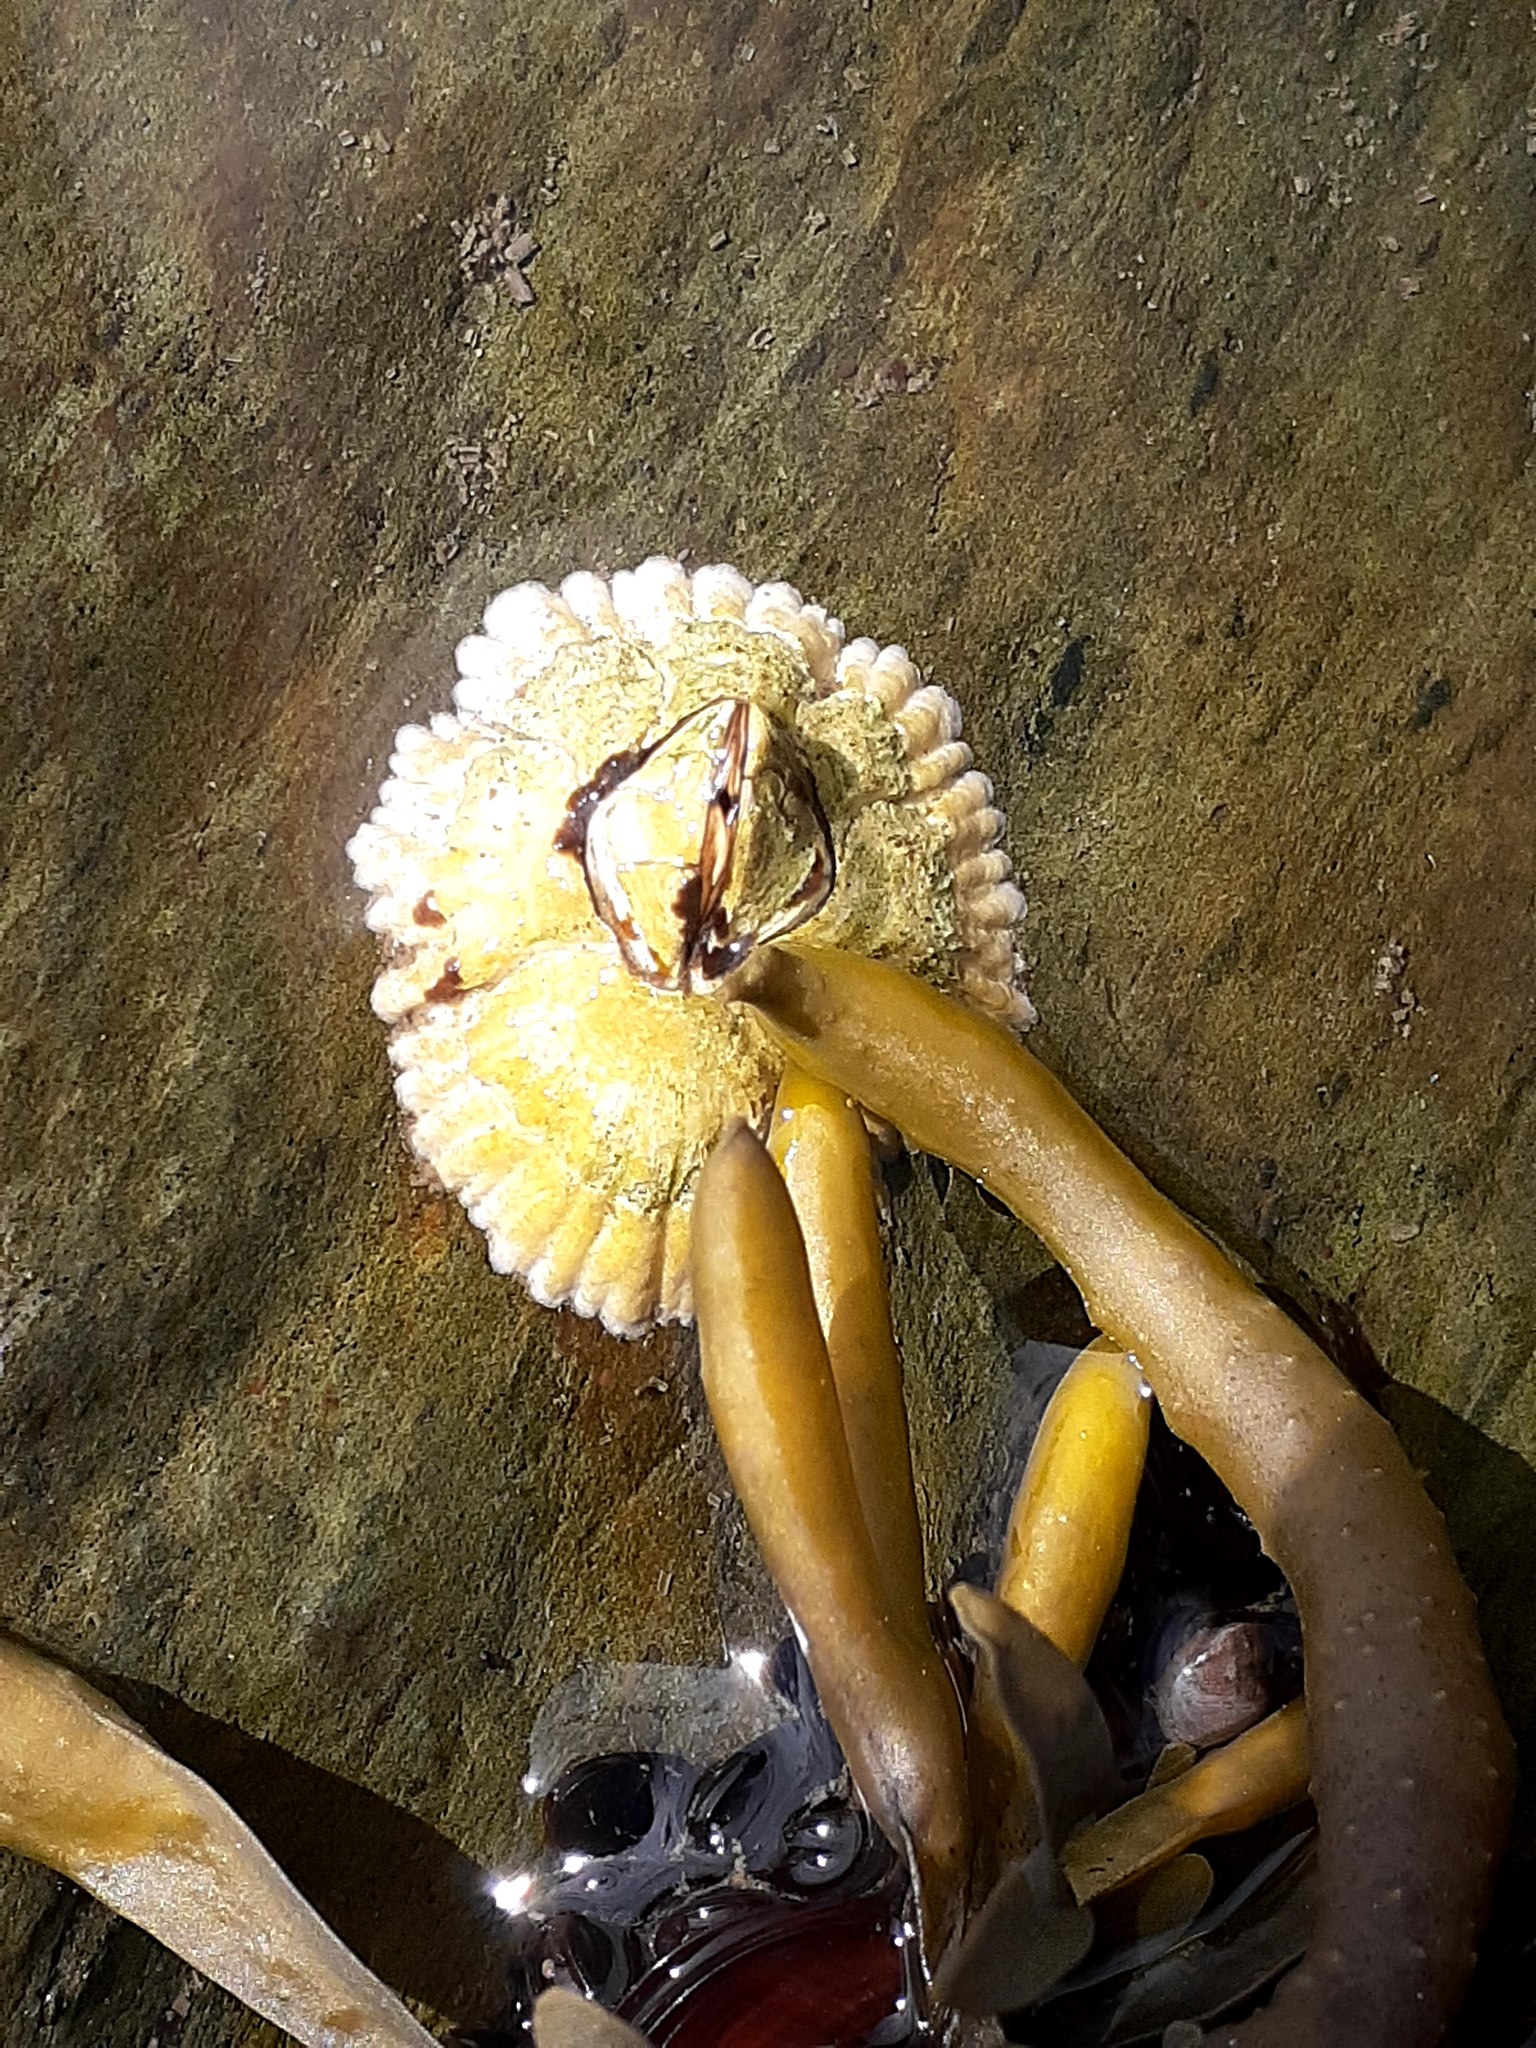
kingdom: Animalia
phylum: Arthropoda
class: Maxillopoda
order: Sessilia
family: Archaeobalanidae
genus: Semibalanus
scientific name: Semibalanus balanoides
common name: Acorn barnacle
